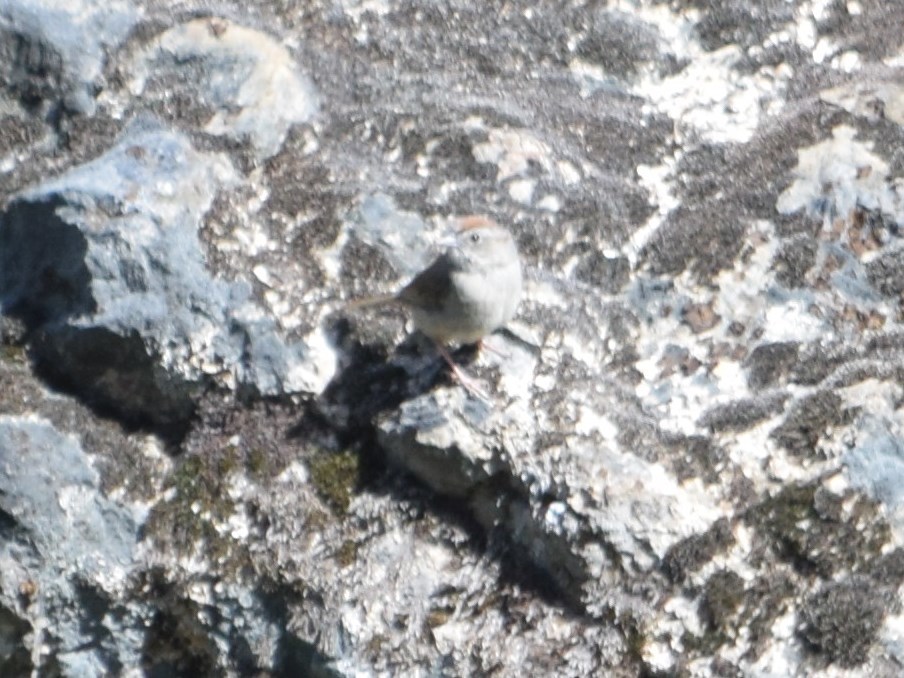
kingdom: Animalia
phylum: Chordata
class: Aves
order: Passeriformes
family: Passerellidae
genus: Aimophila
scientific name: Aimophila ruficeps
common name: Rufous-crowned sparrow
